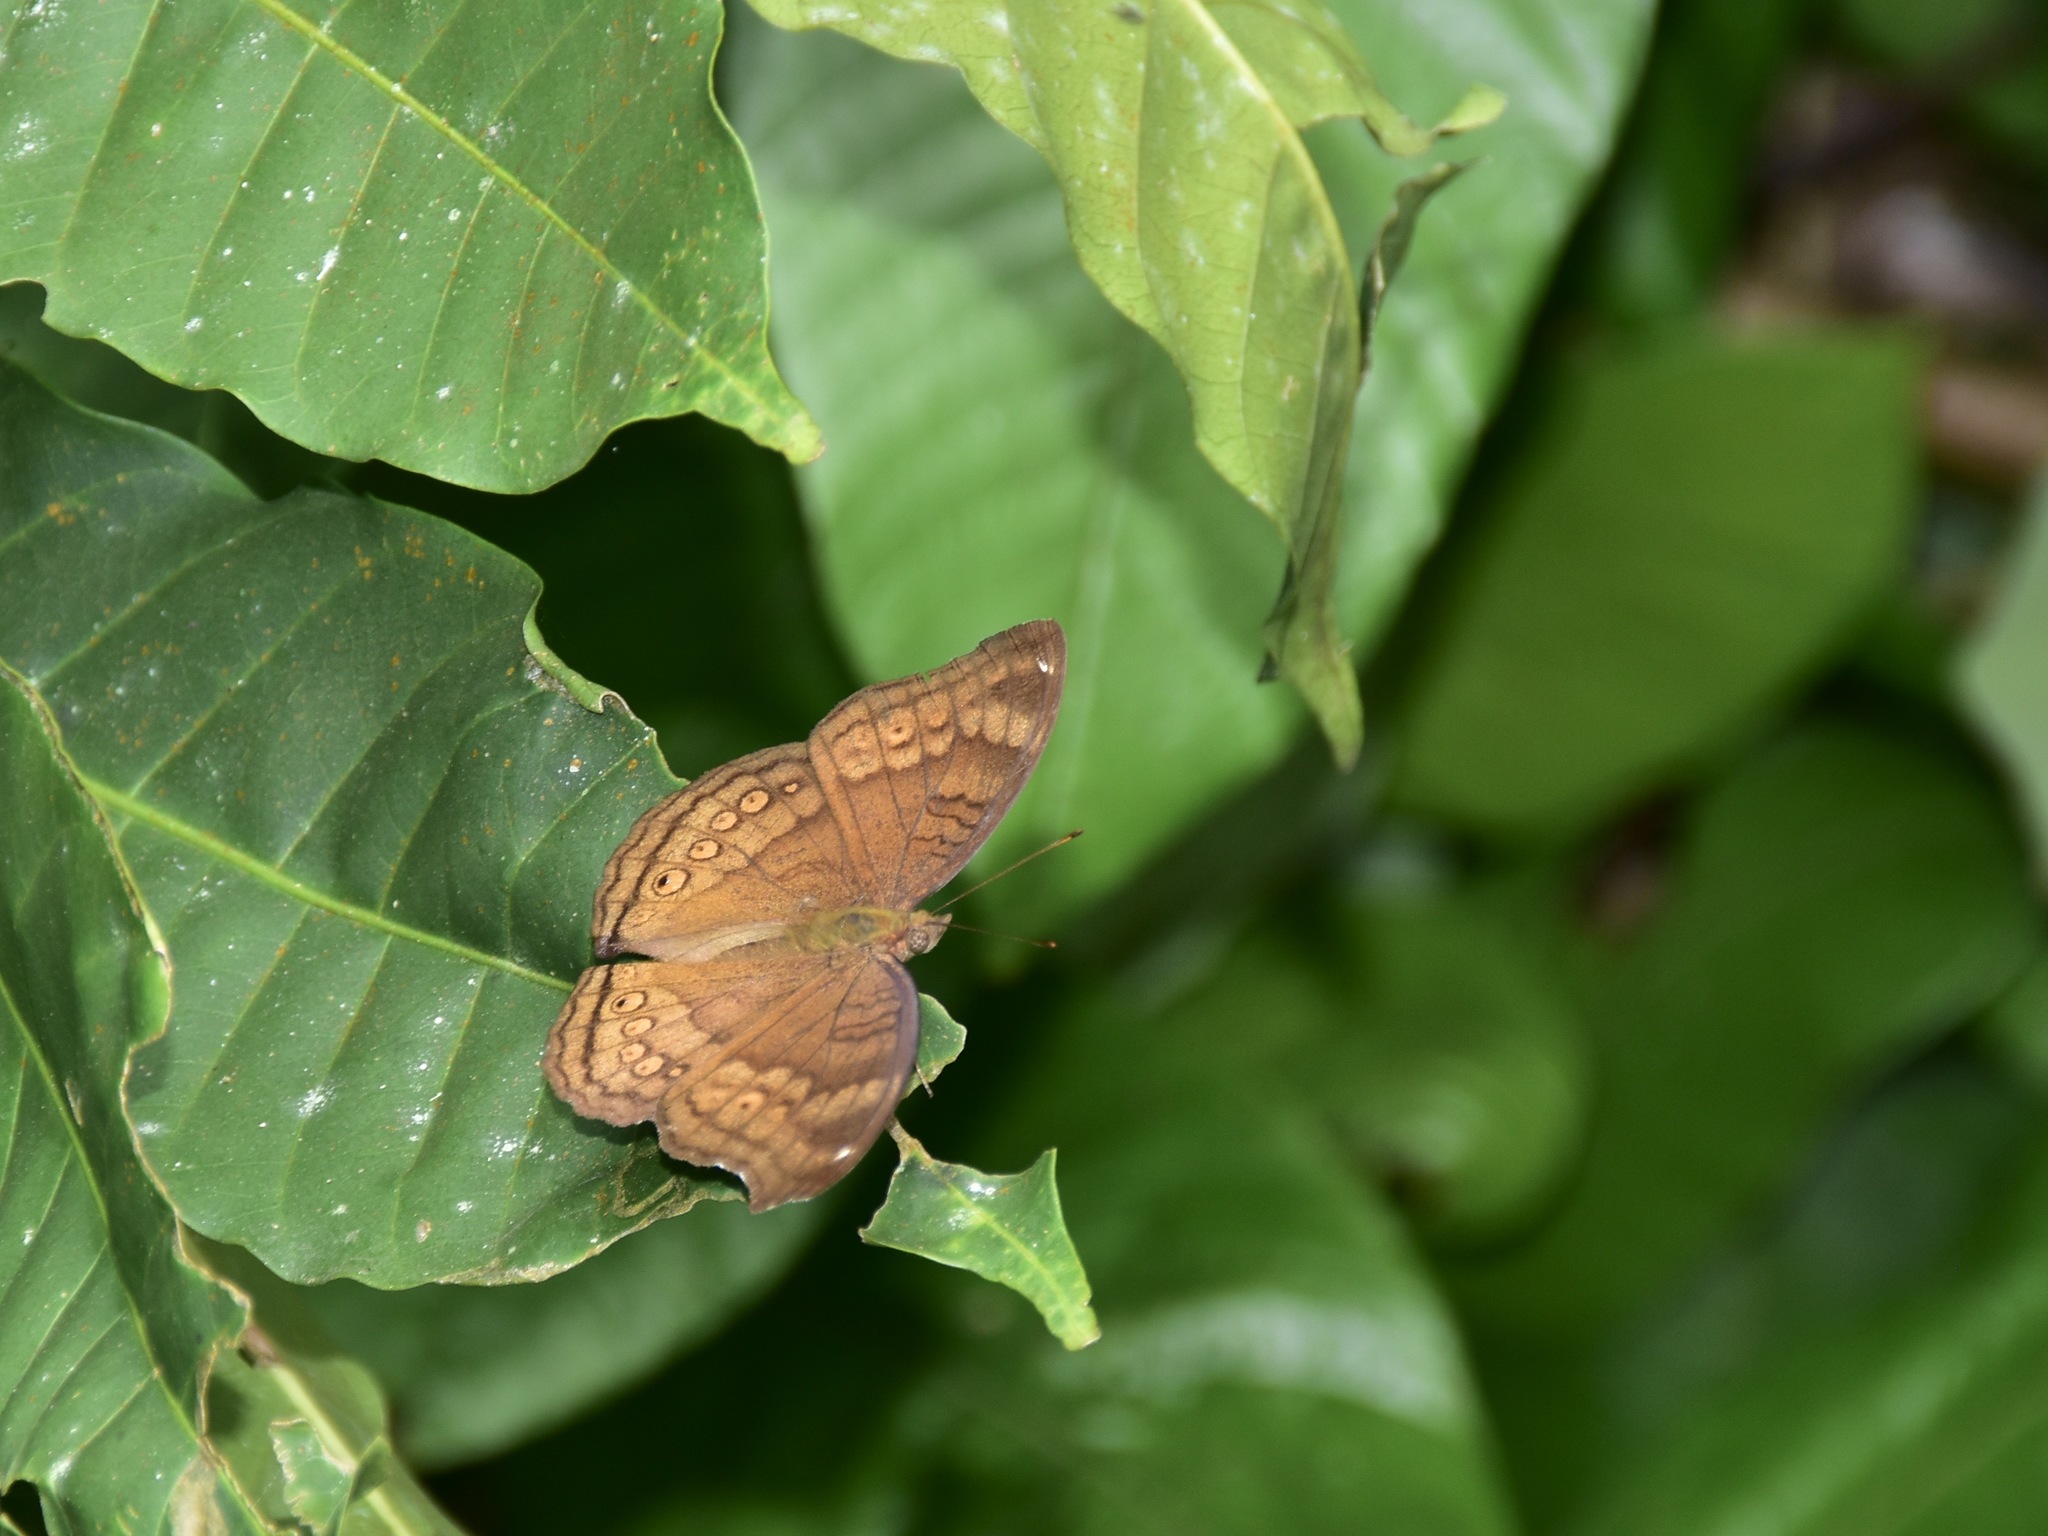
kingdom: Animalia
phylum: Arthropoda
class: Insecta
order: Lepidoptera
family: Nymphalidae
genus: Junonia
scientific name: Junonia hedonia
